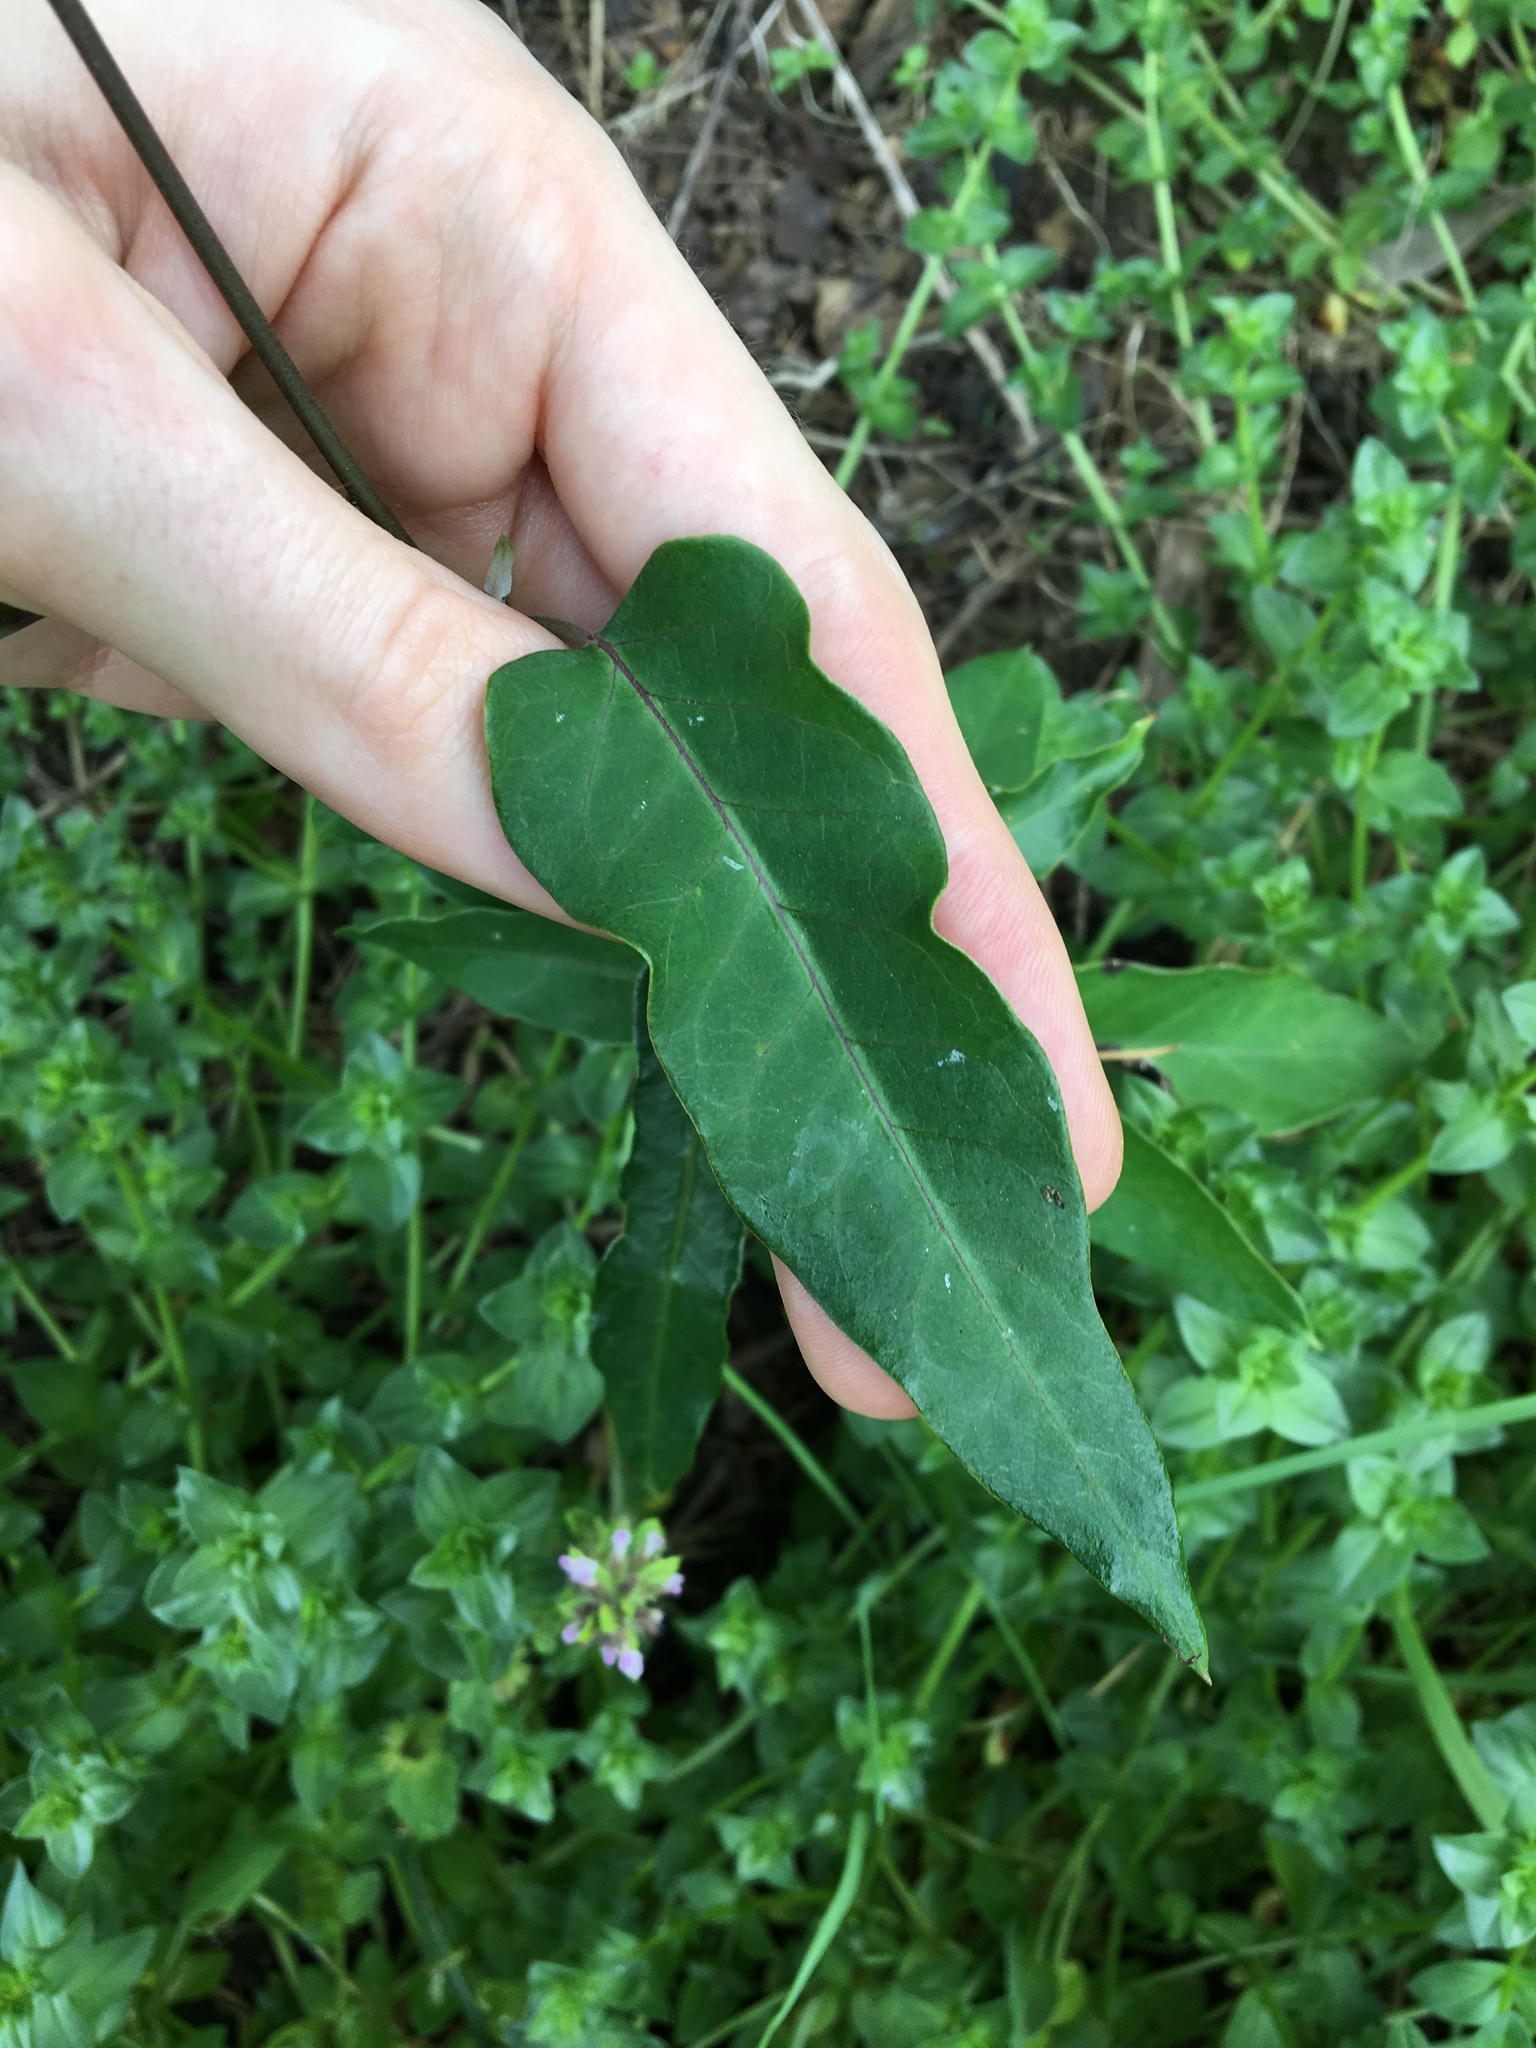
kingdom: Plantae
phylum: Tracheophyta
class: Magnoliopsida
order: Gentianales
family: Apocynaceae
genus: Araujia
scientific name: Araujia sericifera
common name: White bladderflower
